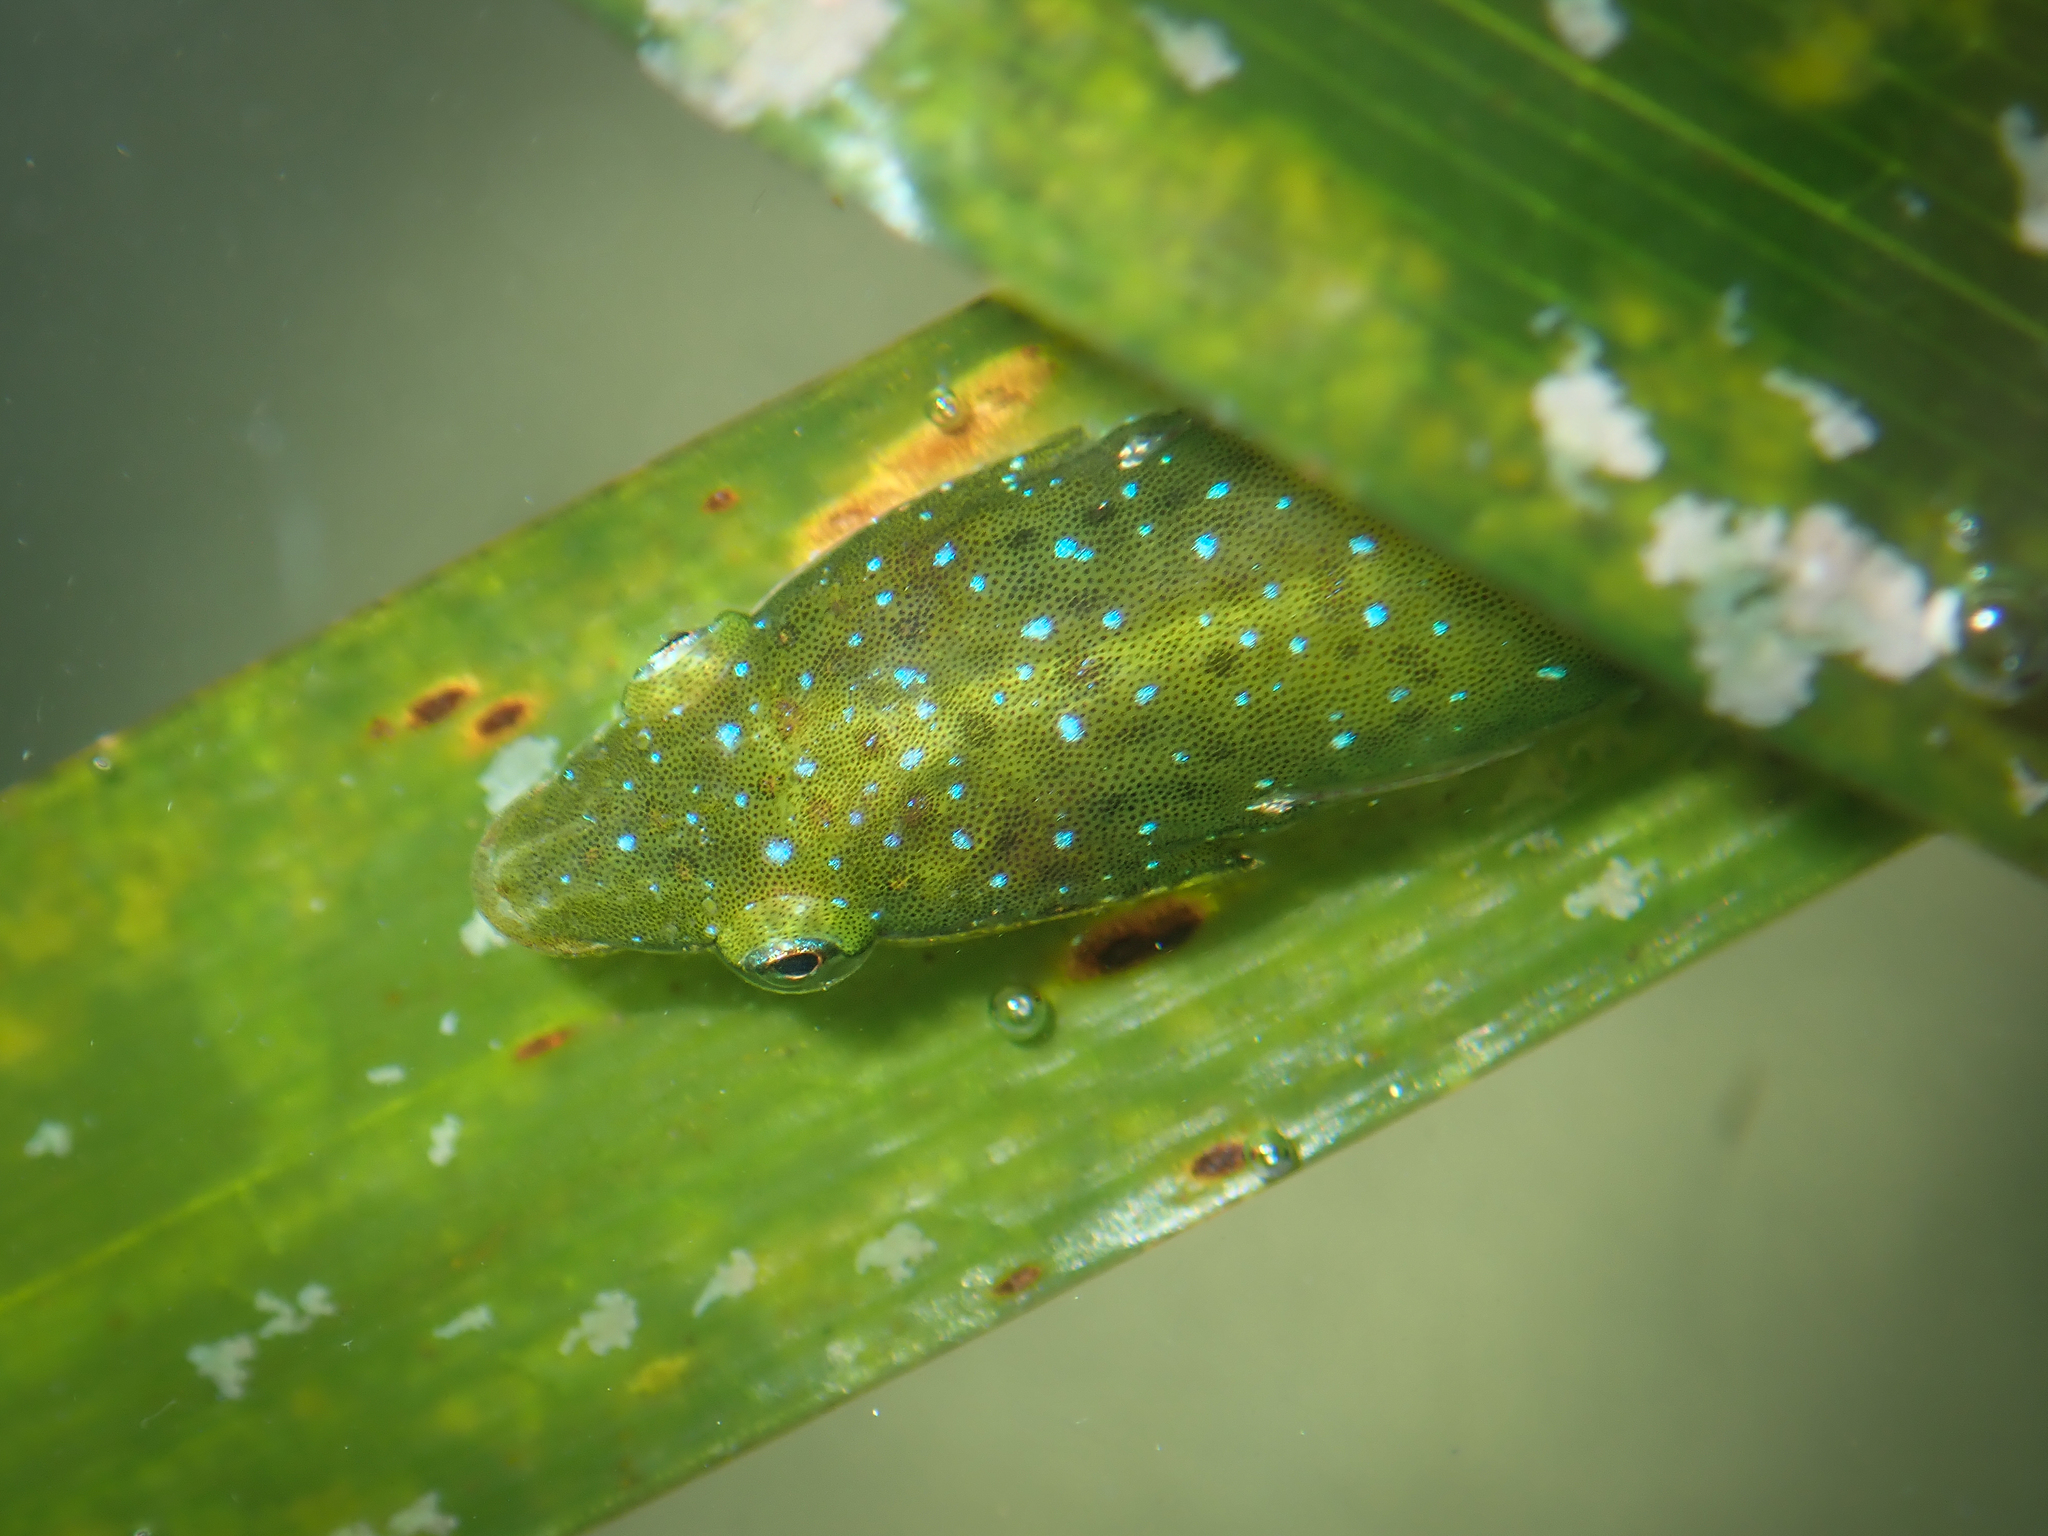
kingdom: Animalia
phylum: Chordata
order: Gobiesociformes
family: Gobiesocidae
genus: Opeatogenys
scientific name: Opeatogenys gracilis
